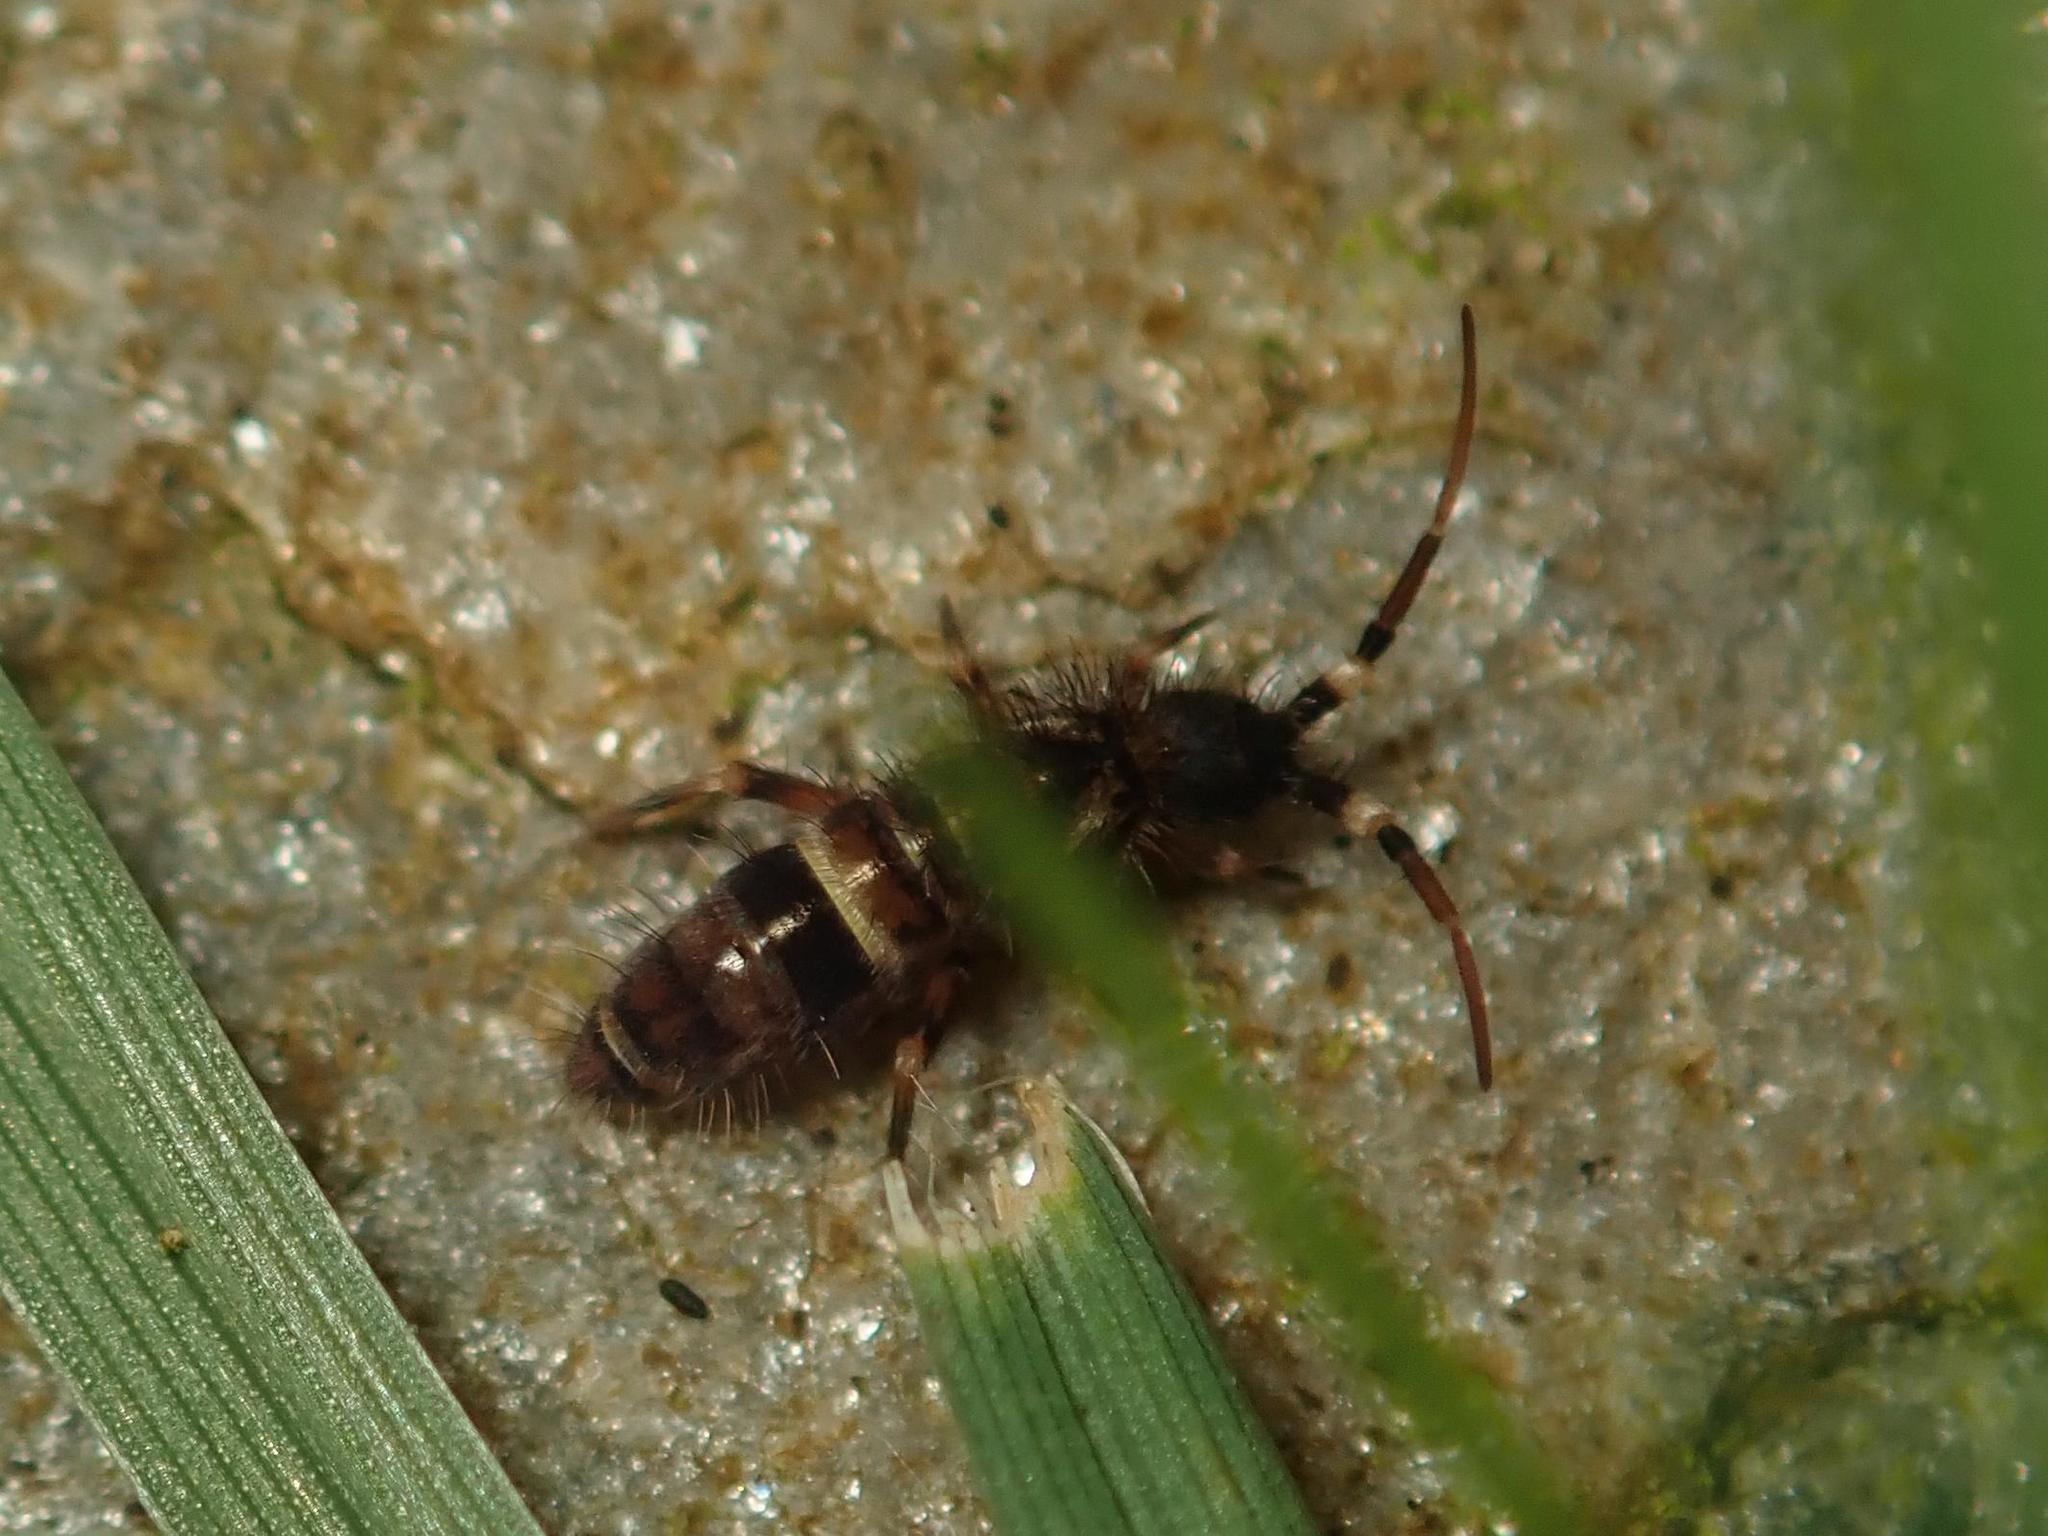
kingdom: Animalia
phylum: Arthropoda
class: Collembola
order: Entomobryomorpha
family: Orchesellidae
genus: Orchesella
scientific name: Orchesella cincta
